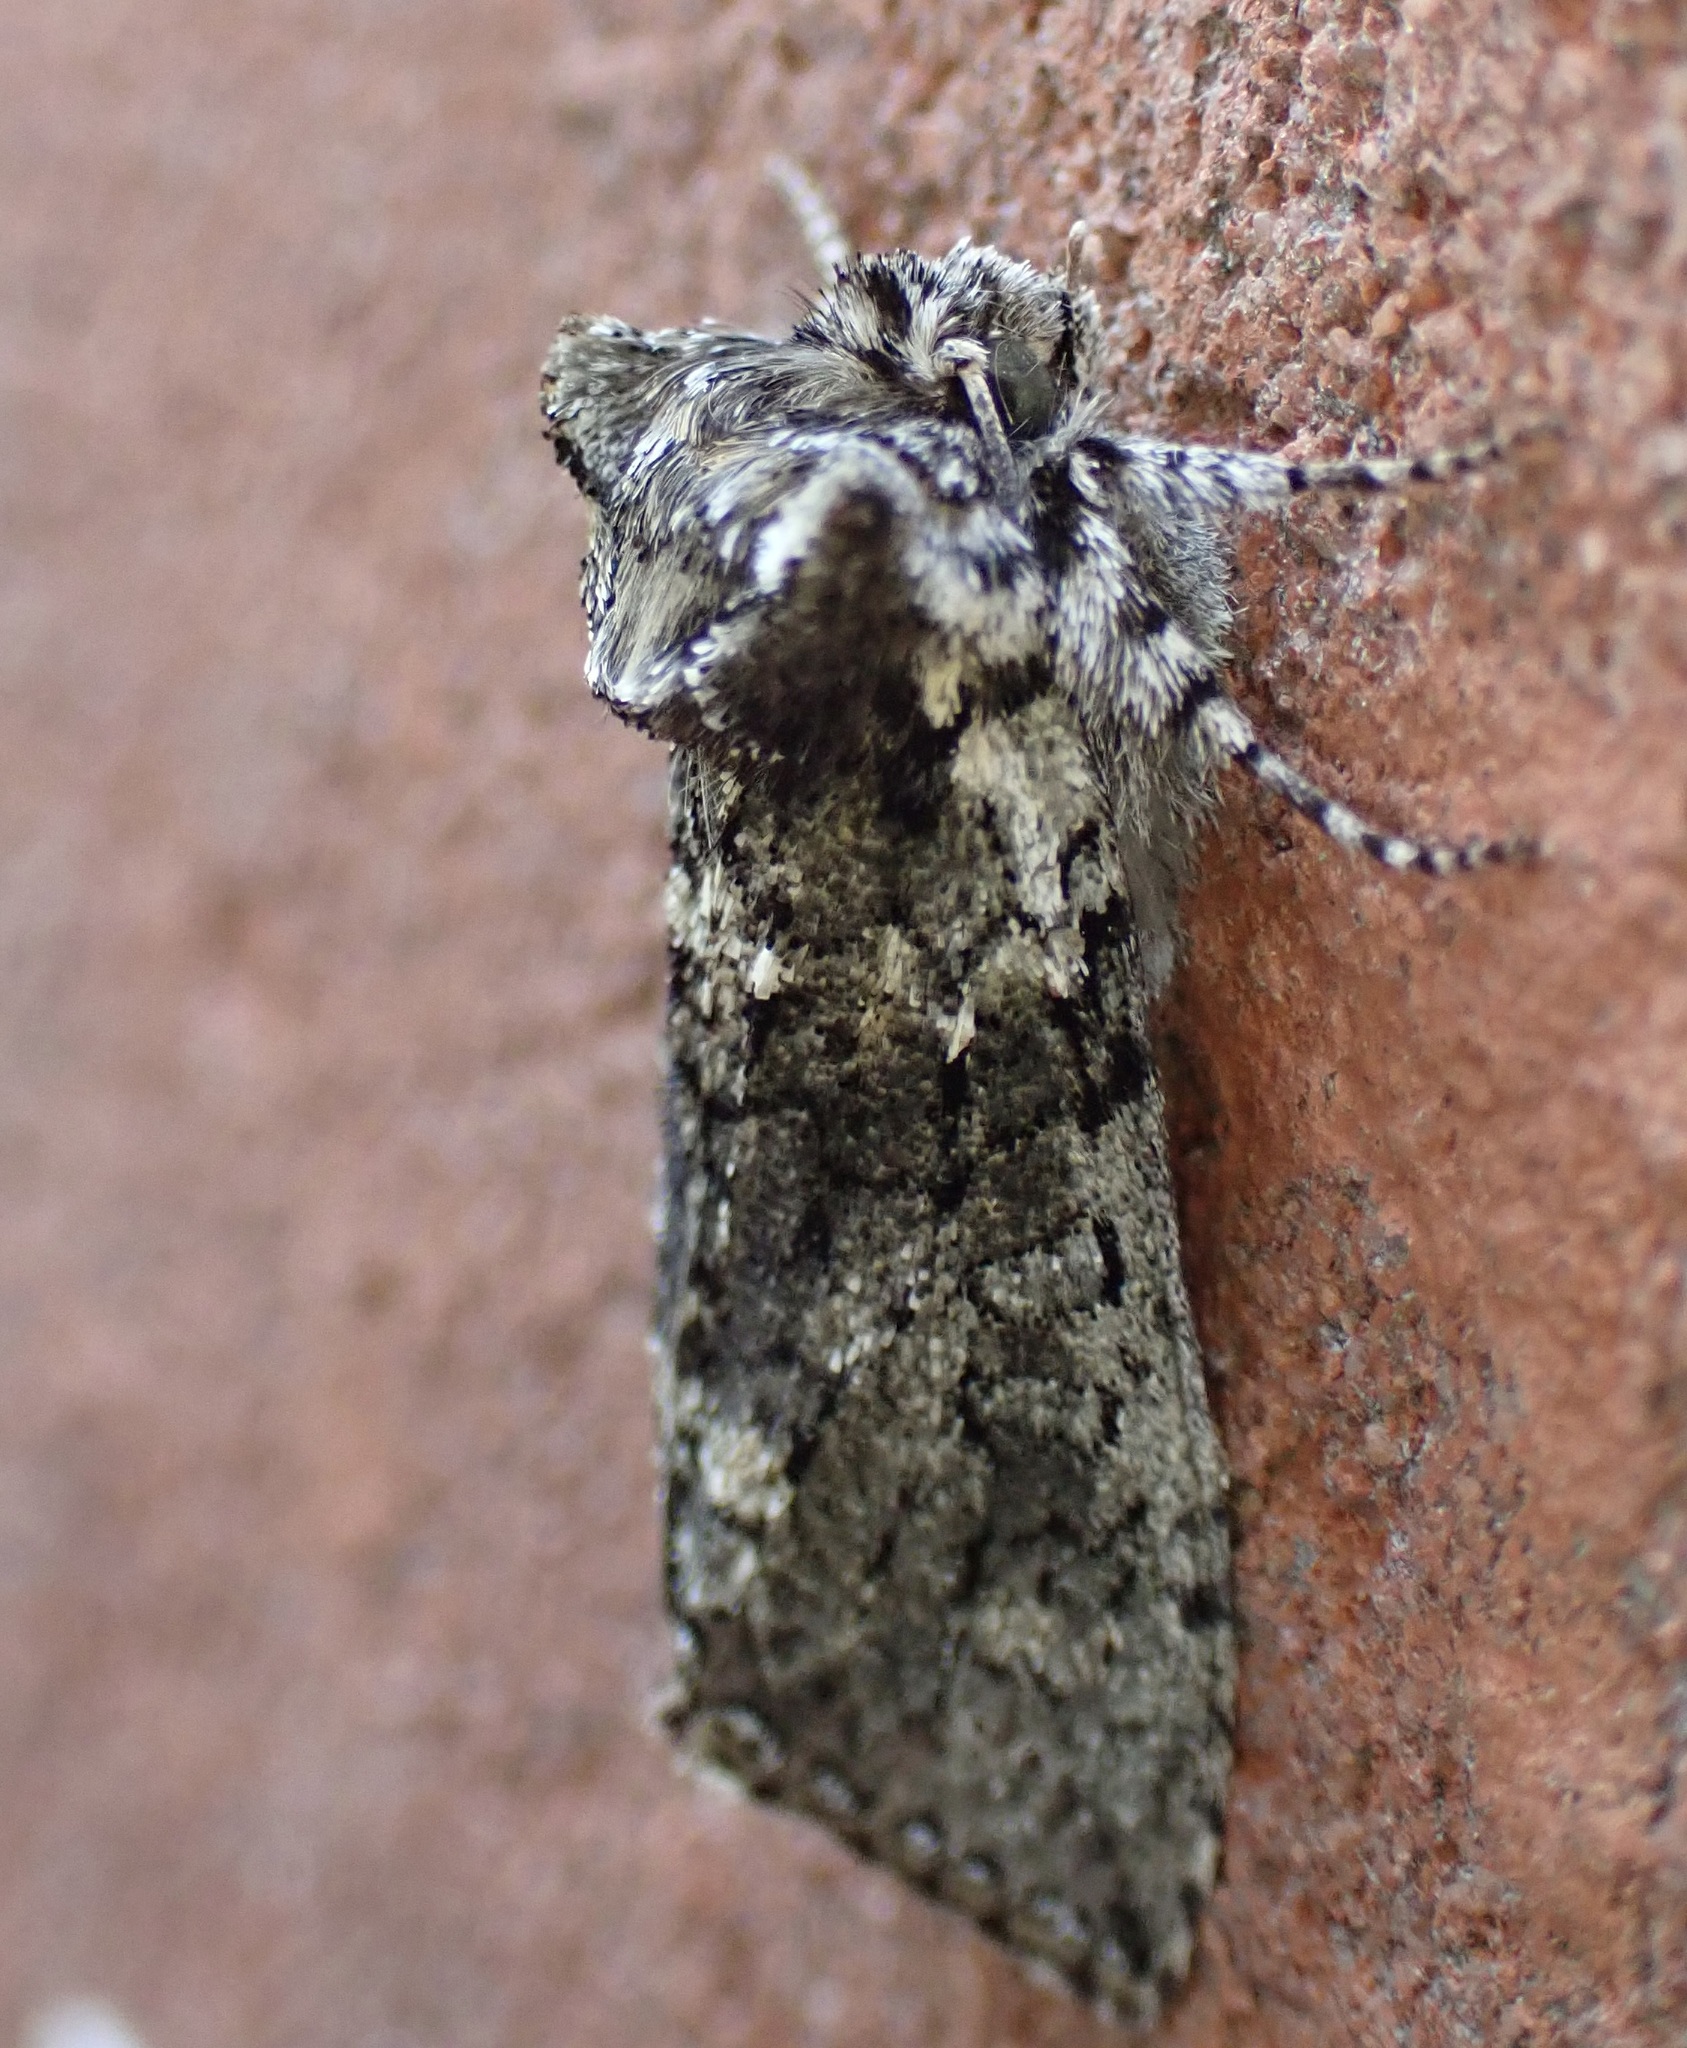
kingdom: Animalia
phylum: Arthropoda
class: Insecta
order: Lepidoptera
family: Drepanidae
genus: Polyploca
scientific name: Polyploca ridens
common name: Frosted green
